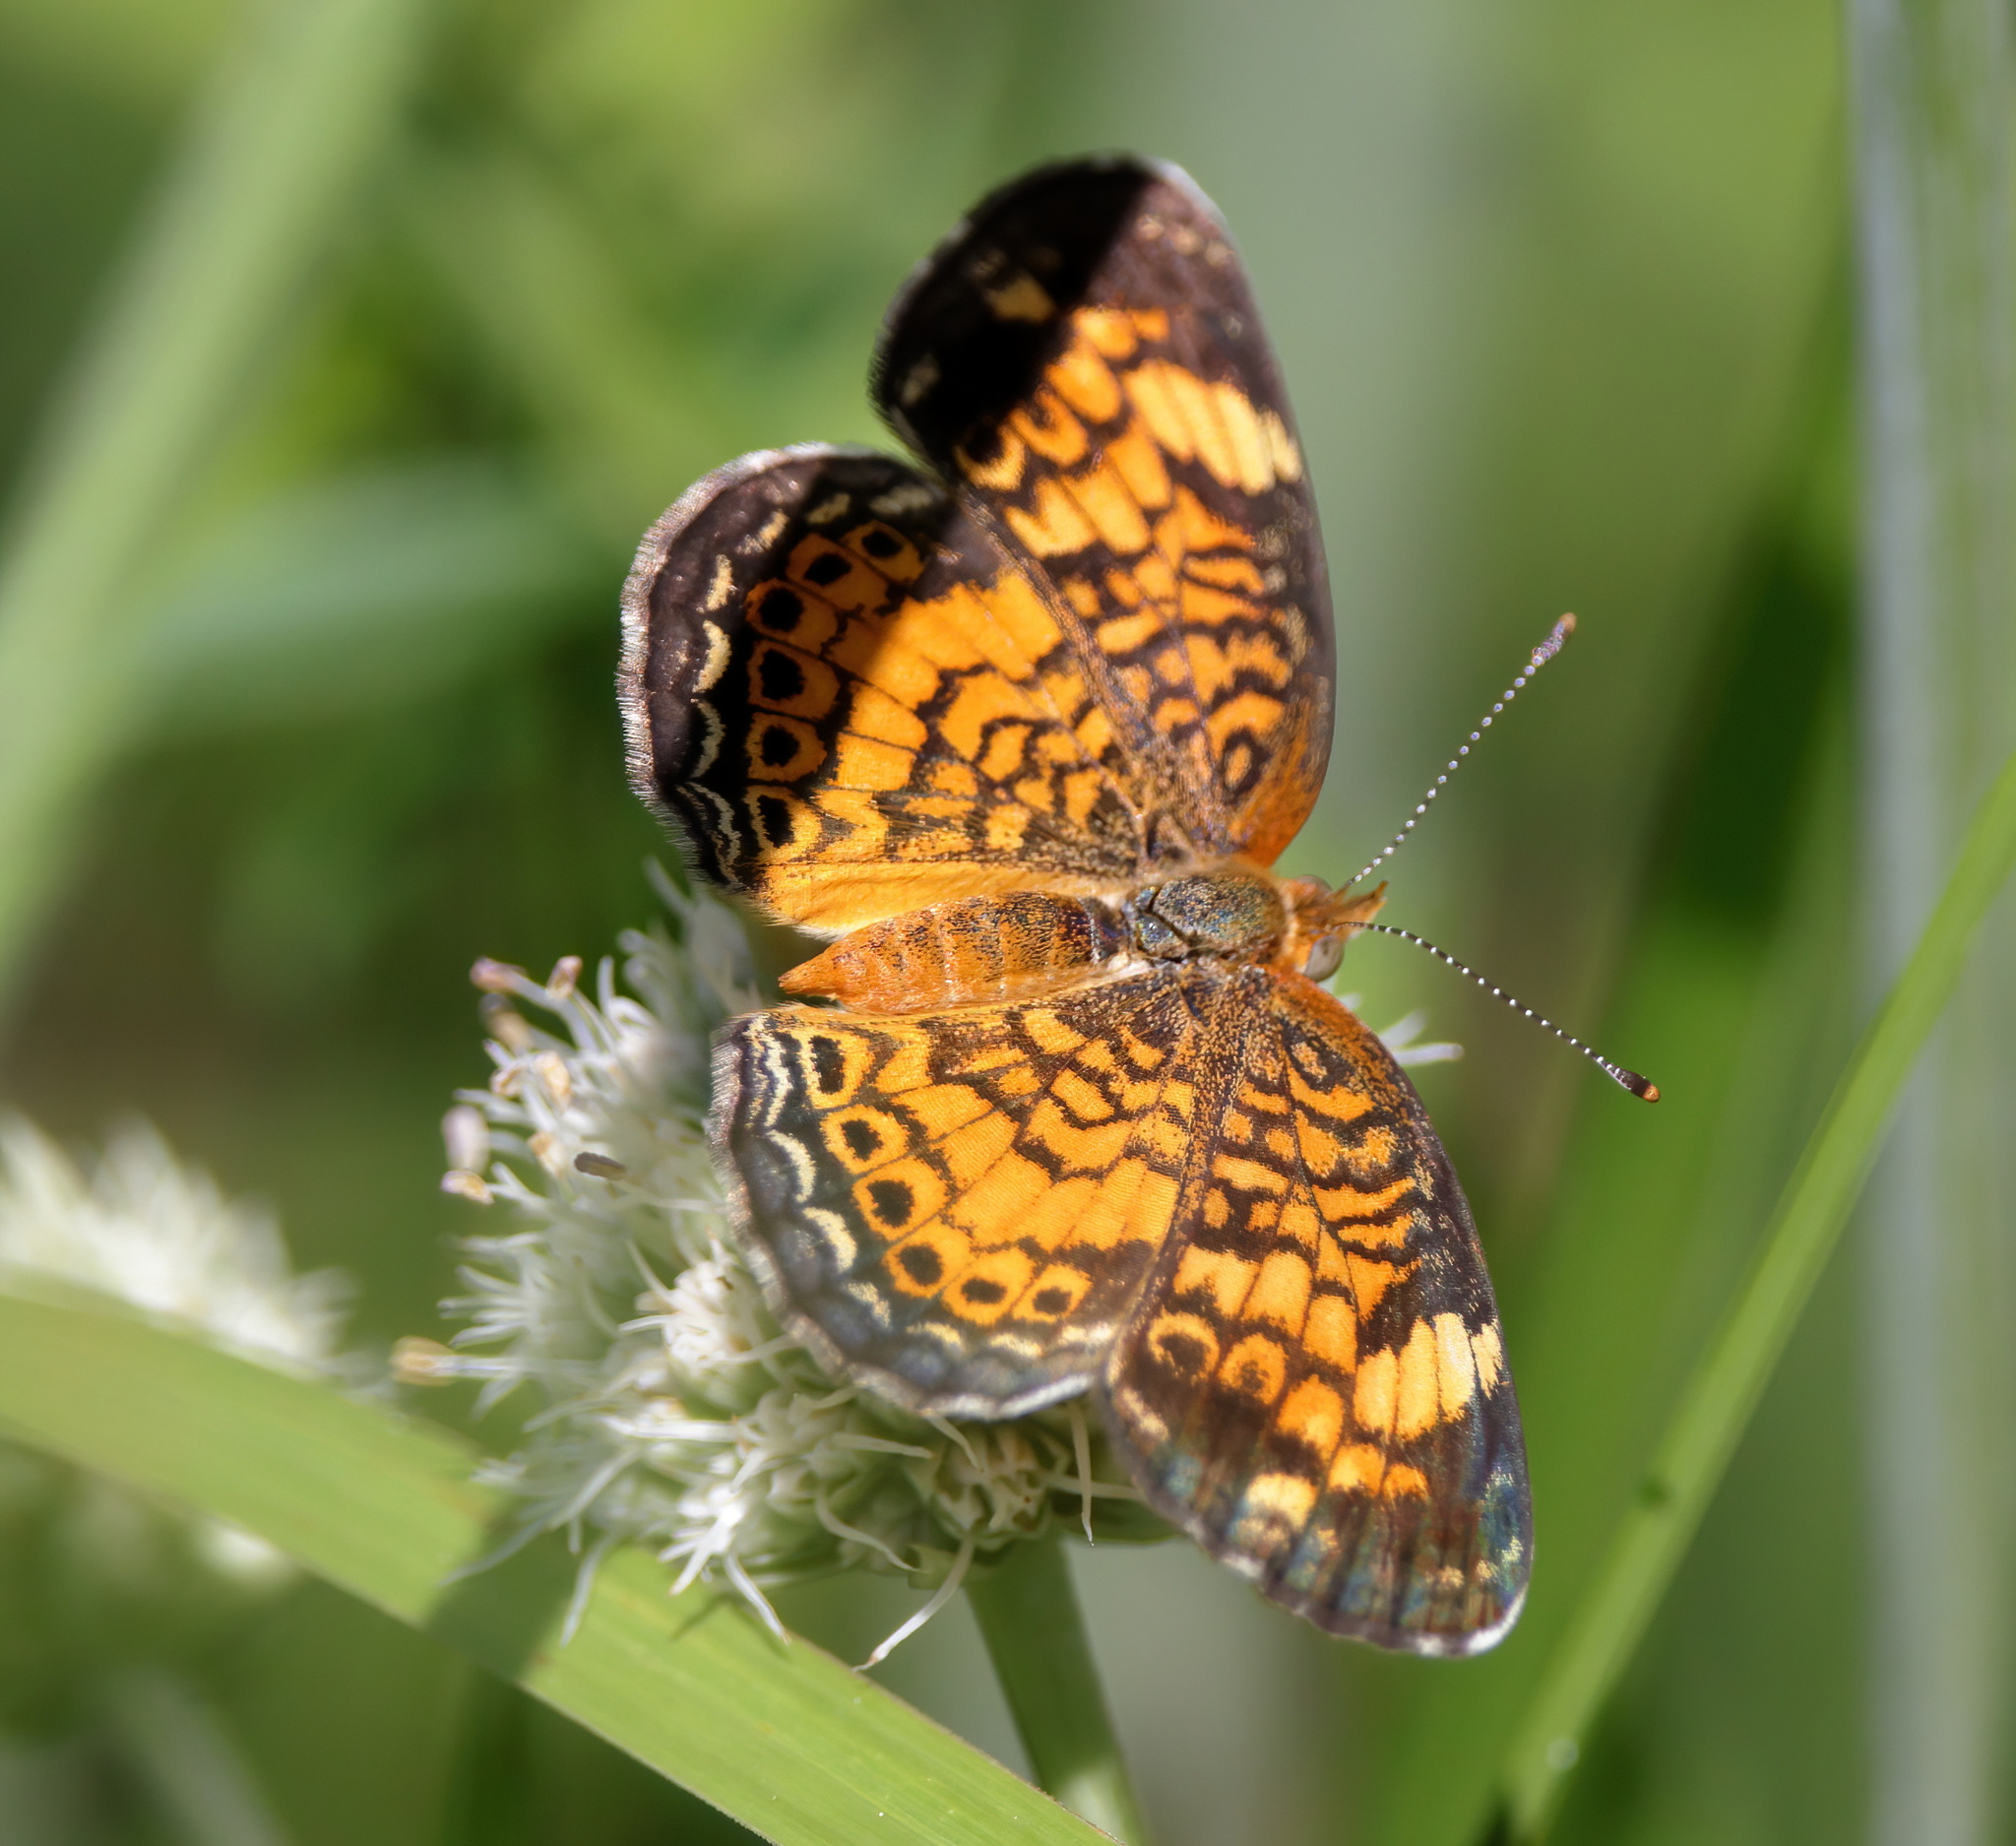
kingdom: Animalia
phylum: Arthropoda
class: Insecta
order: Lepidoptera
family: Nymphalidae
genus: Phyciodes
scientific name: Phyciodes tharos
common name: Pearl crescent
